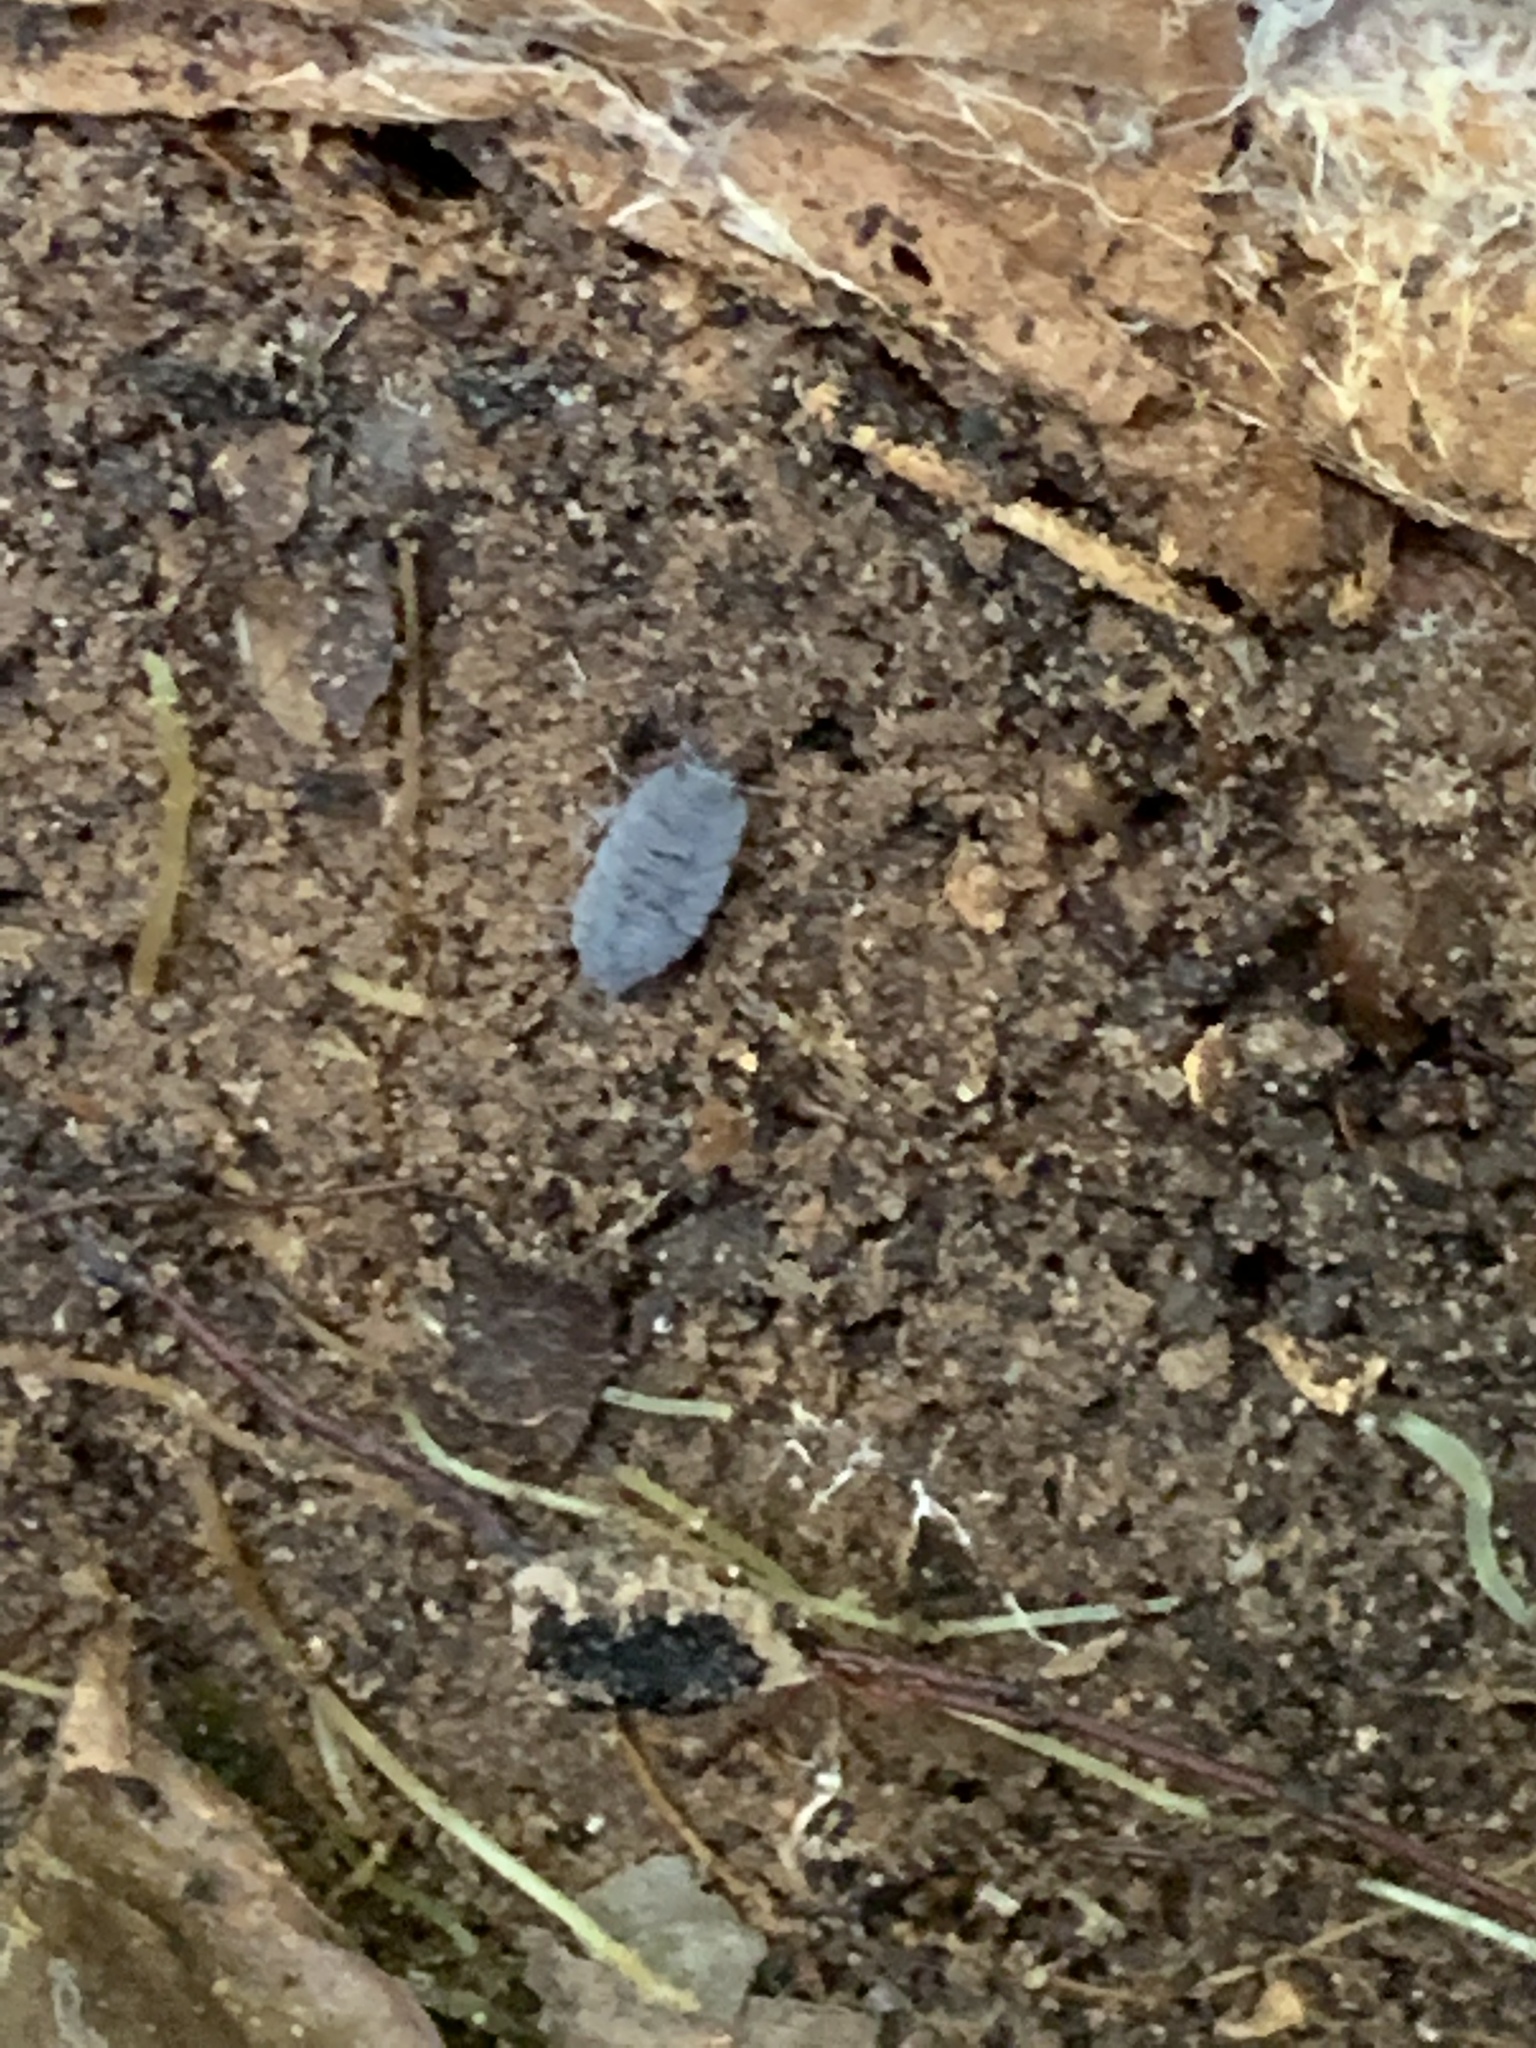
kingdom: Animalia
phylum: Arthropoda
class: Malacostraca
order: Isopoda
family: Porcellionidae
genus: Porcellionides
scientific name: Porcellionides pruinosus
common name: Plum woodlouse
